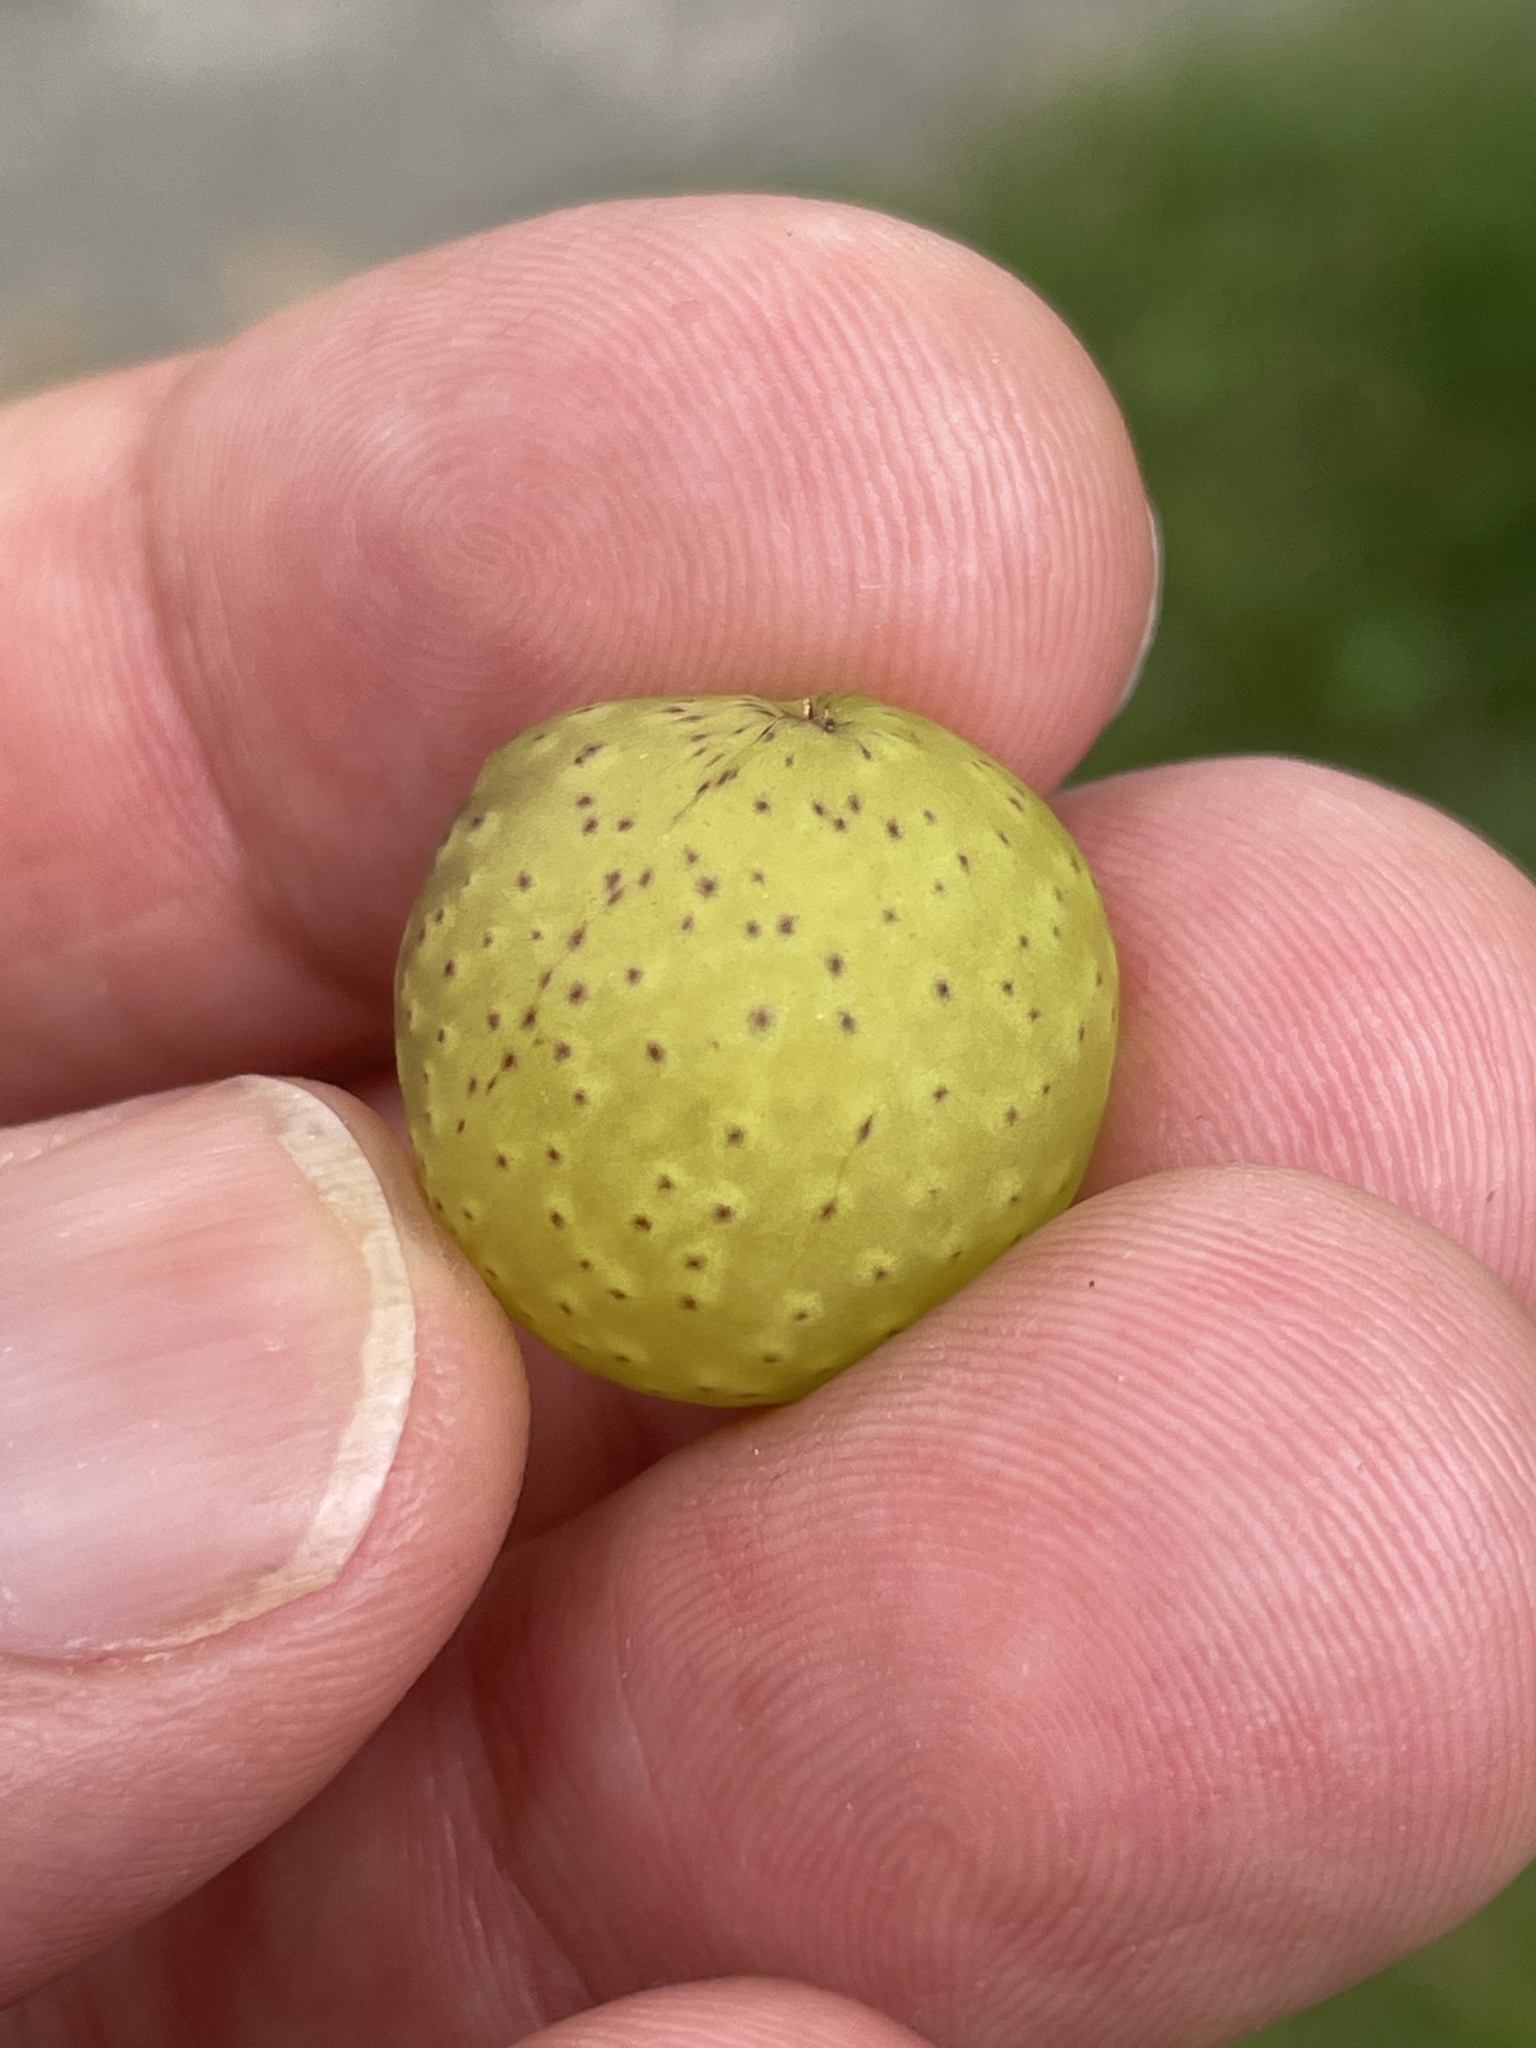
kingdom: Animalia
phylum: Arthropoda
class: Insecta
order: Hymenoptera
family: Cynipidae
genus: Amphibolips
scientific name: Amphibolips
